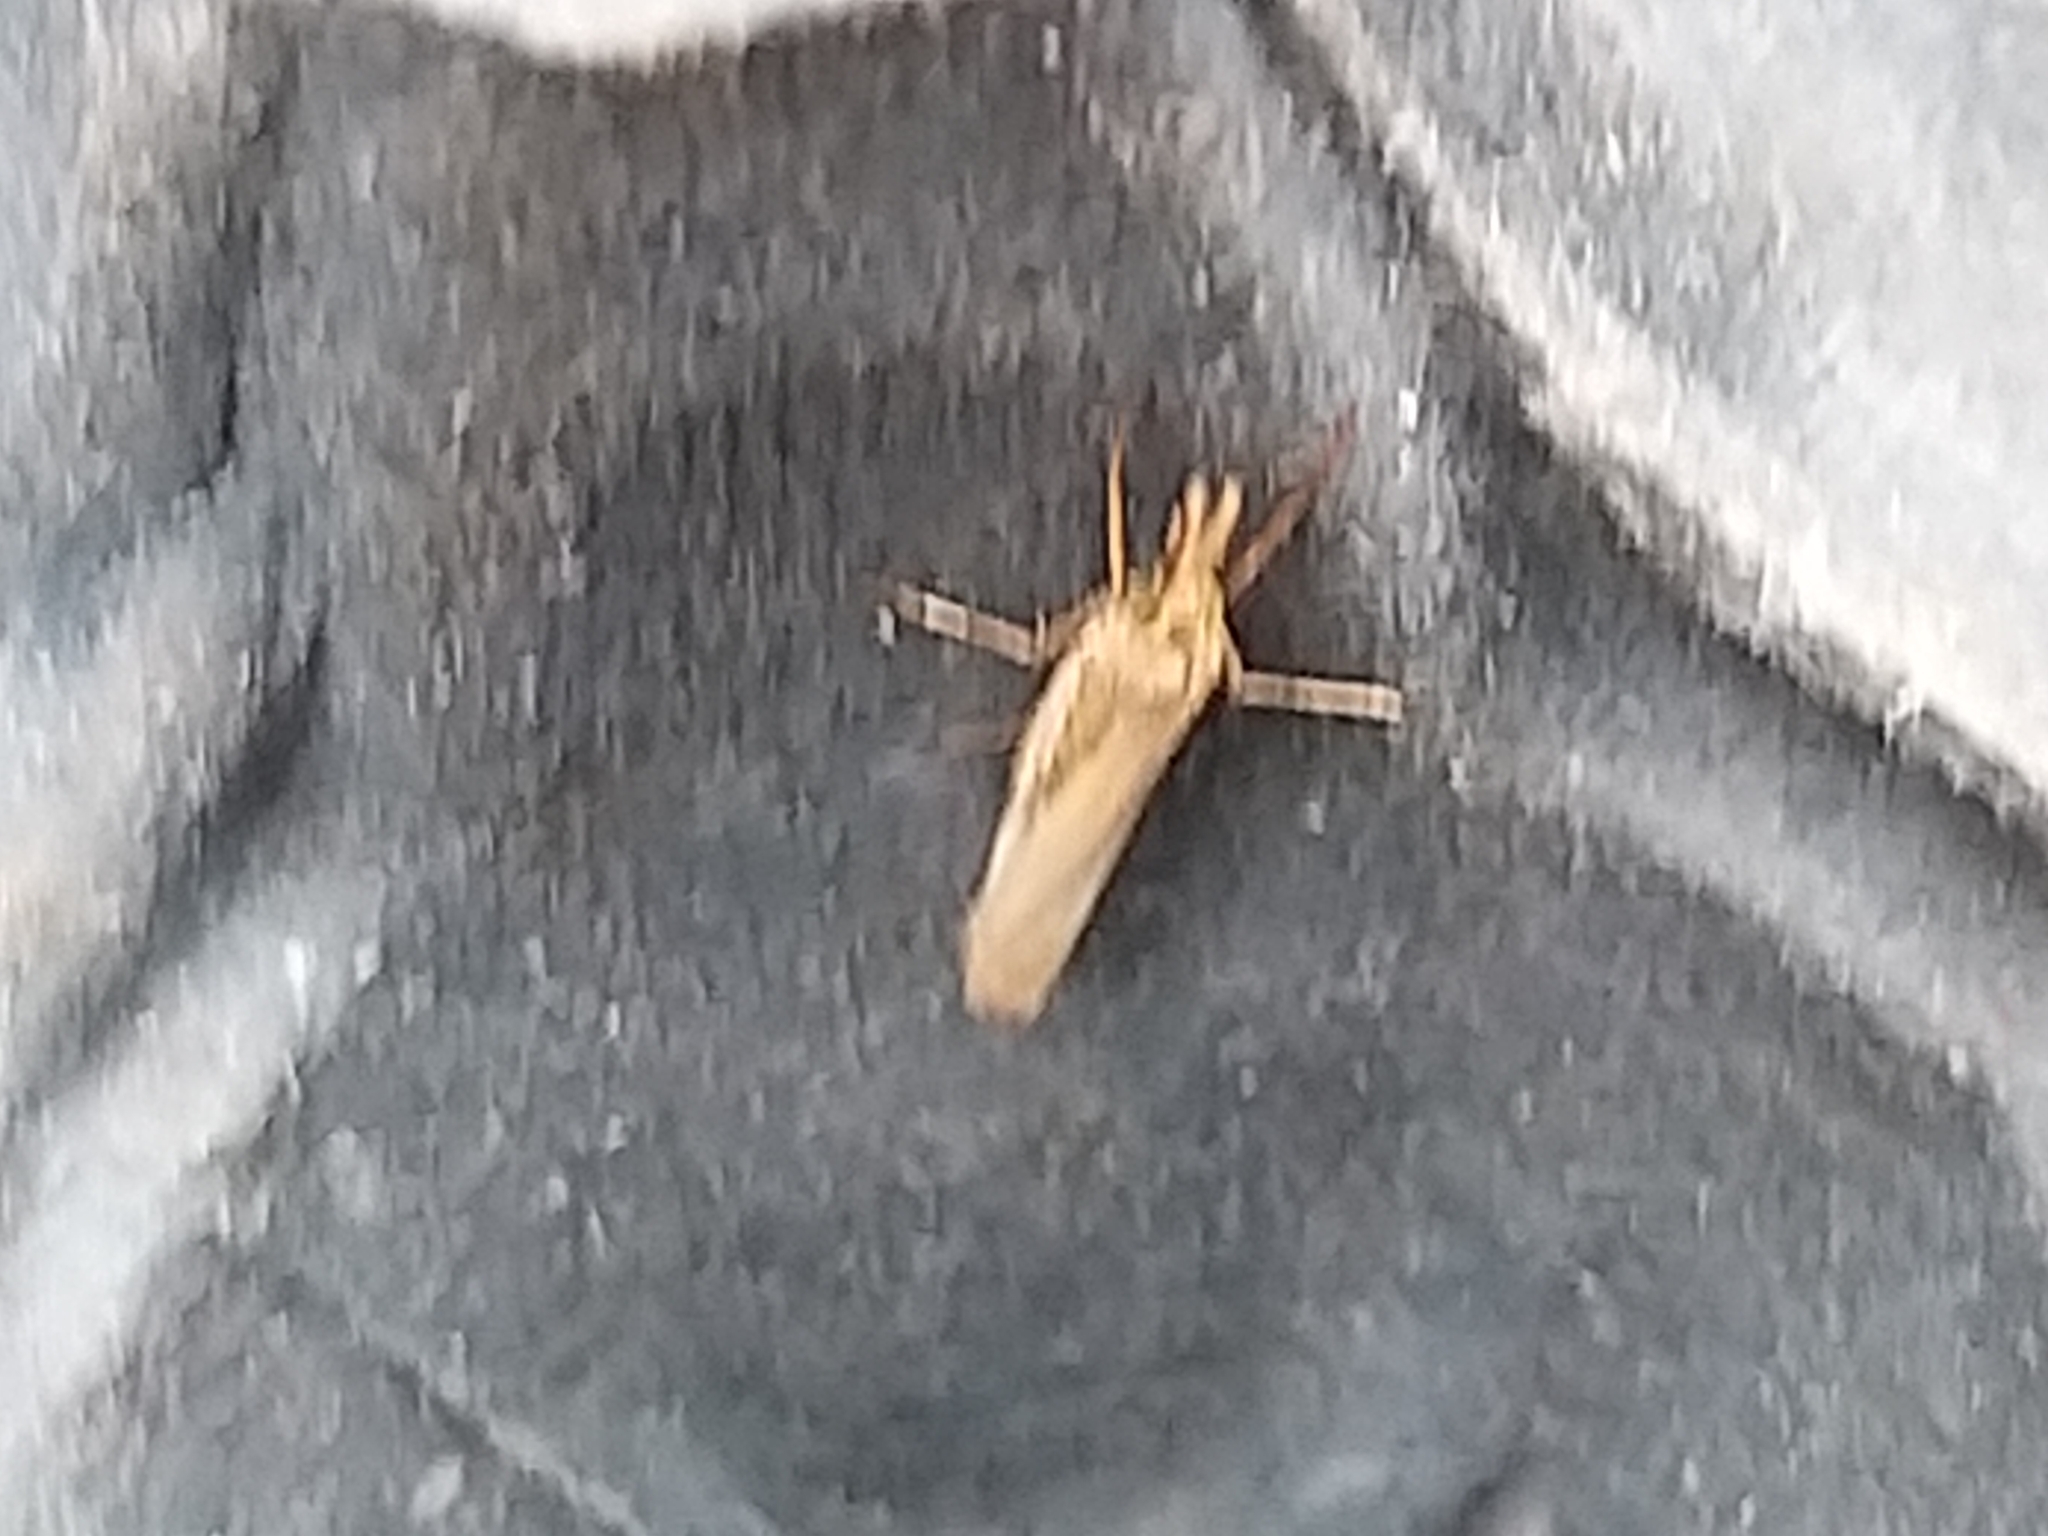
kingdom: Animalia
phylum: Arthropoda
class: Insecta
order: Lepidoptera
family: Crambidae
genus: Agriphila
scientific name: Agriphila tristellus
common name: Common grass-veneer
